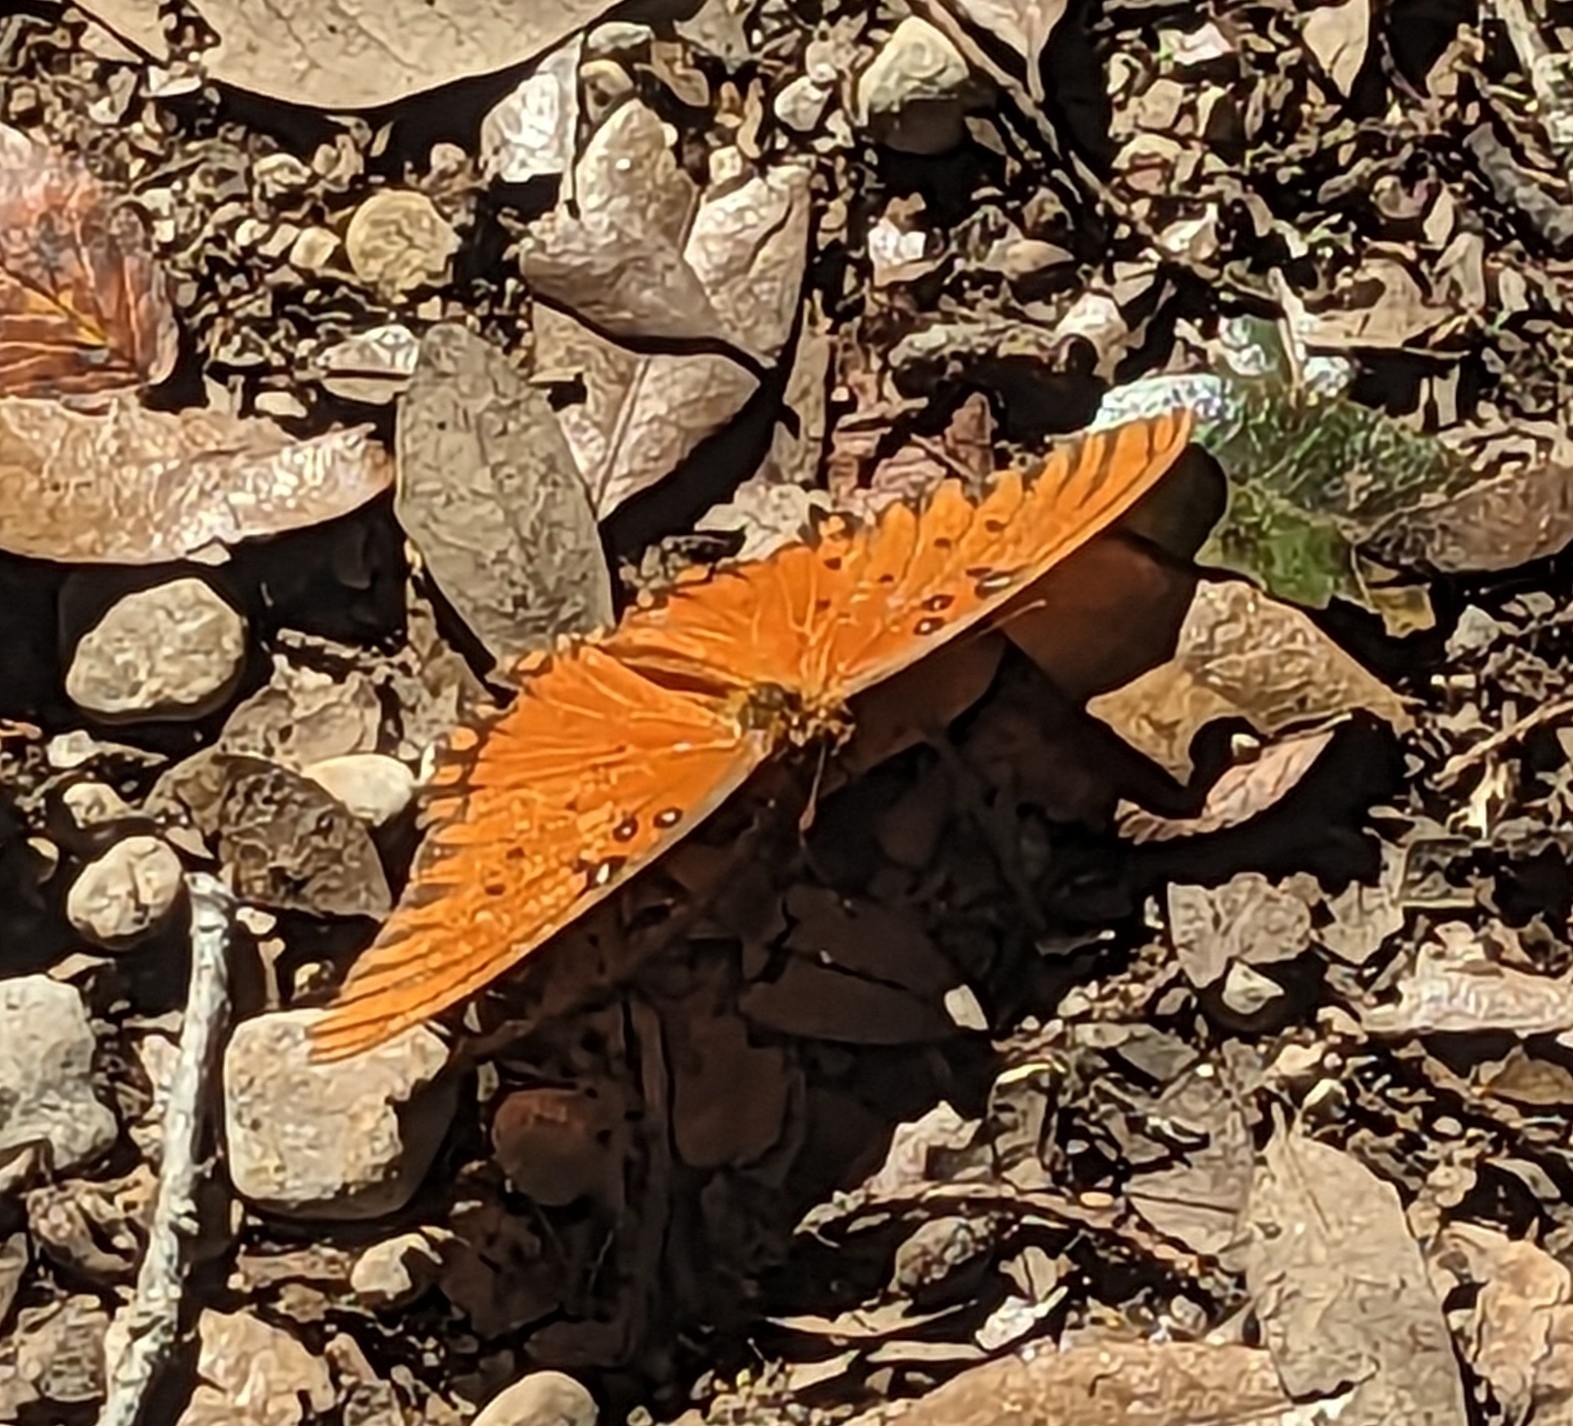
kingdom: Animalia
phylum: Arthropoda
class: Insecta
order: Lepidoptera
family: Nymphalidae
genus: Dione
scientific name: Dione vanillae
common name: Gulf fritillary
